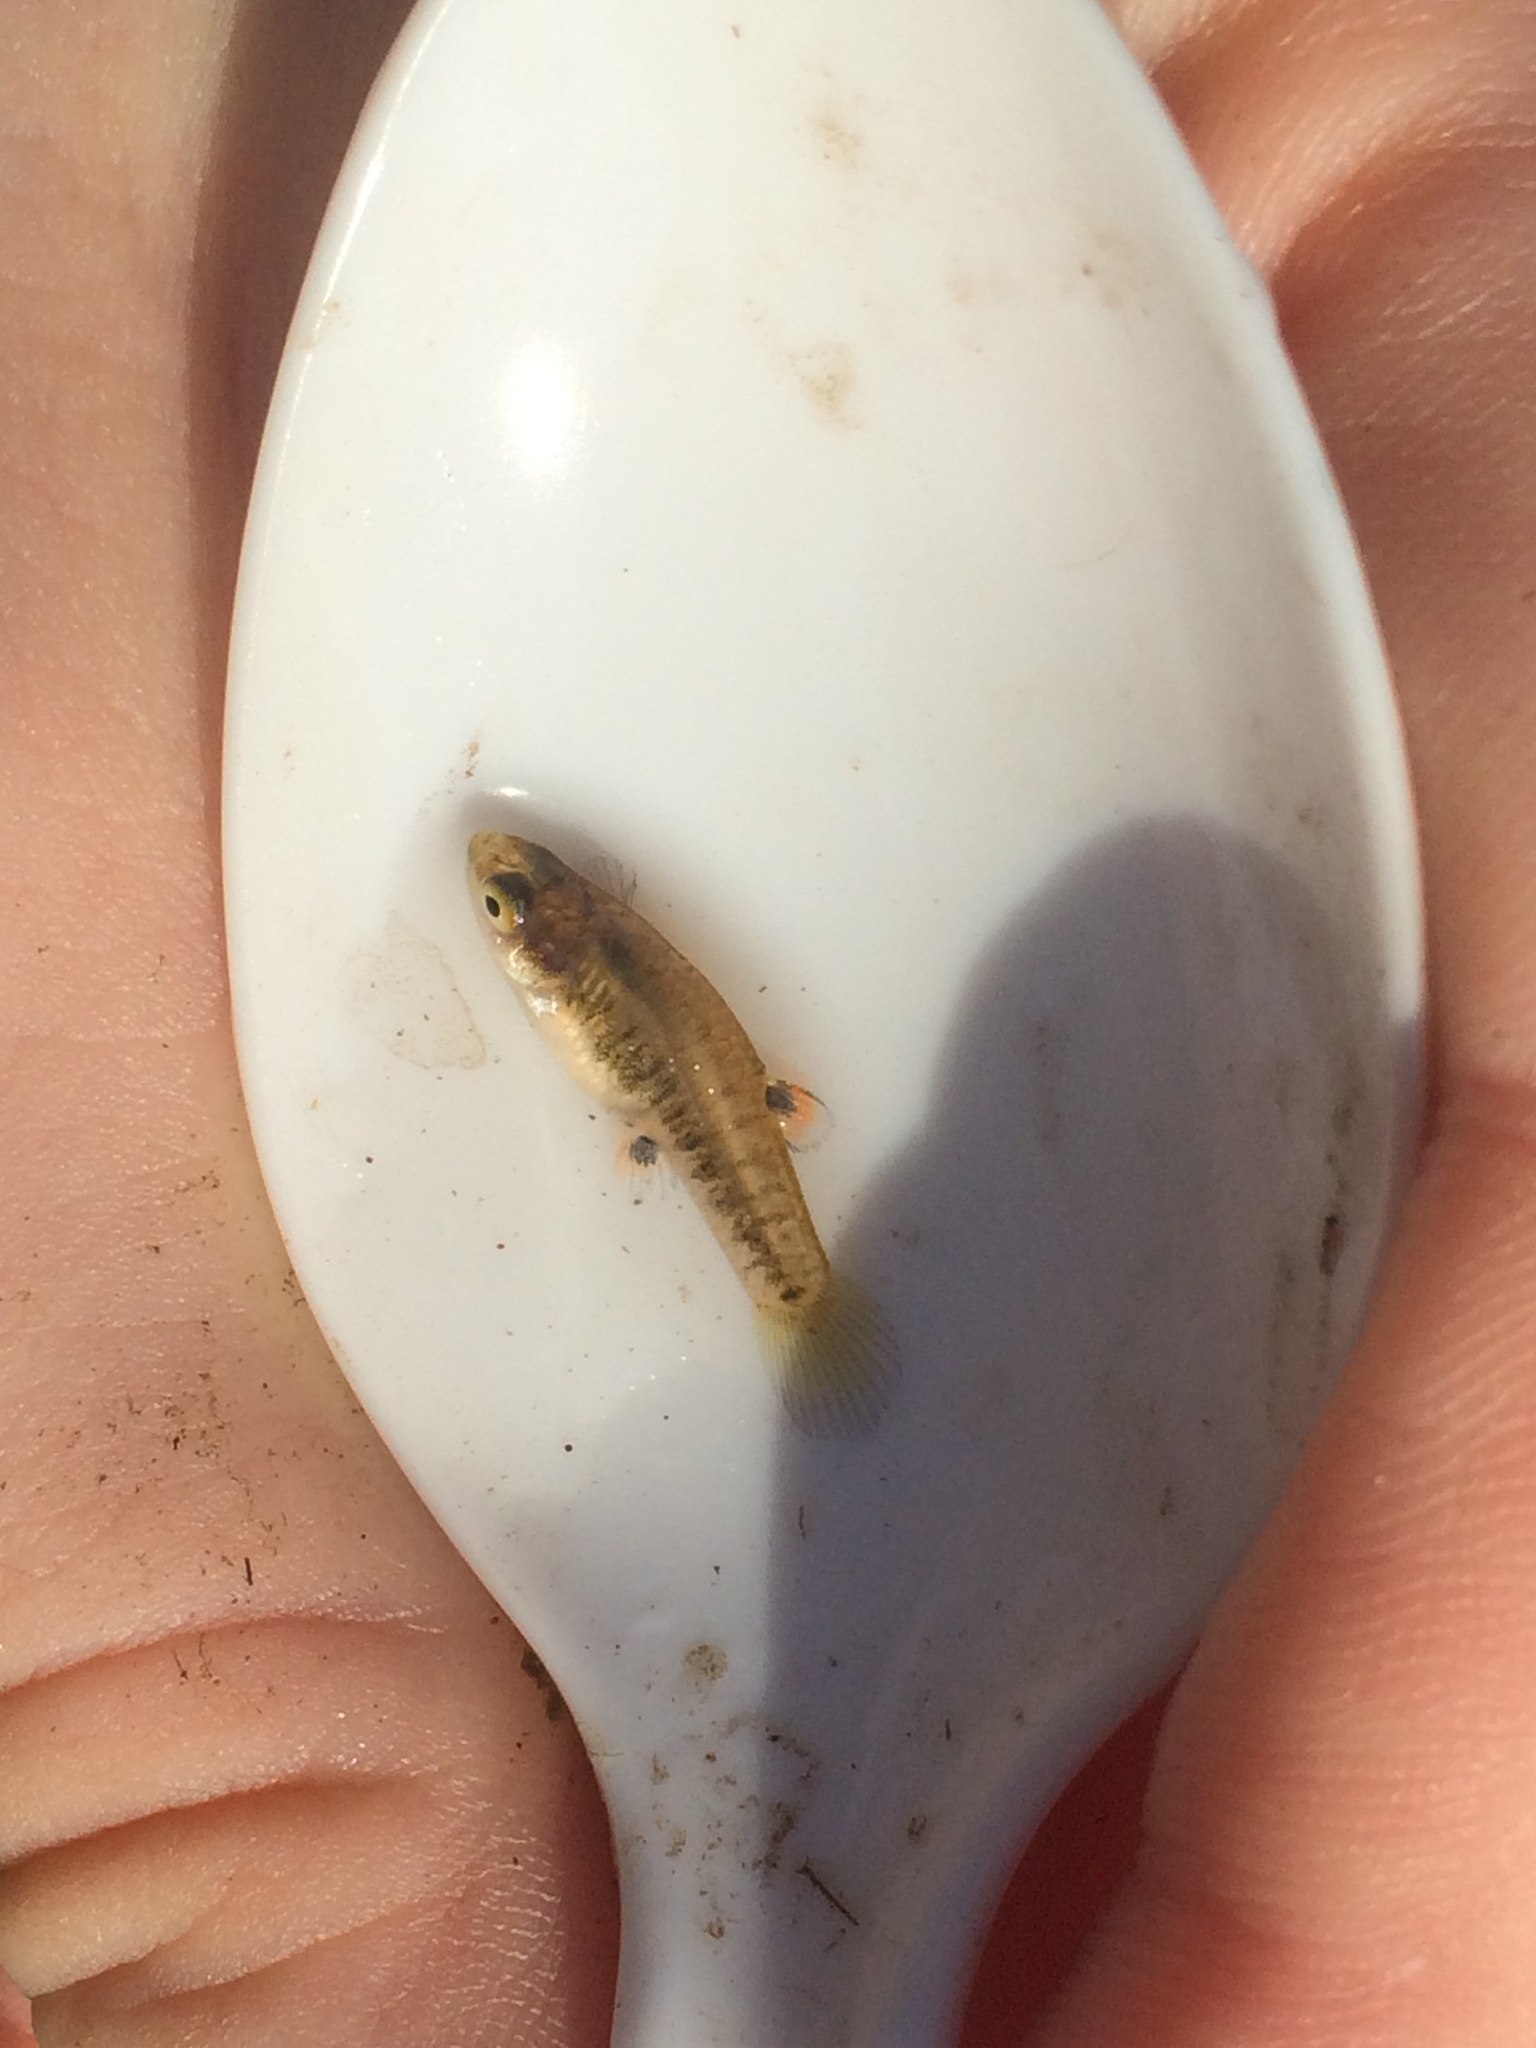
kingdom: Animalia
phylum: Chordata
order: Cyprinodontiformes
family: Poeciliidae
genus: Heterandria
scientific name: Heterandria formosa
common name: Least killifish
